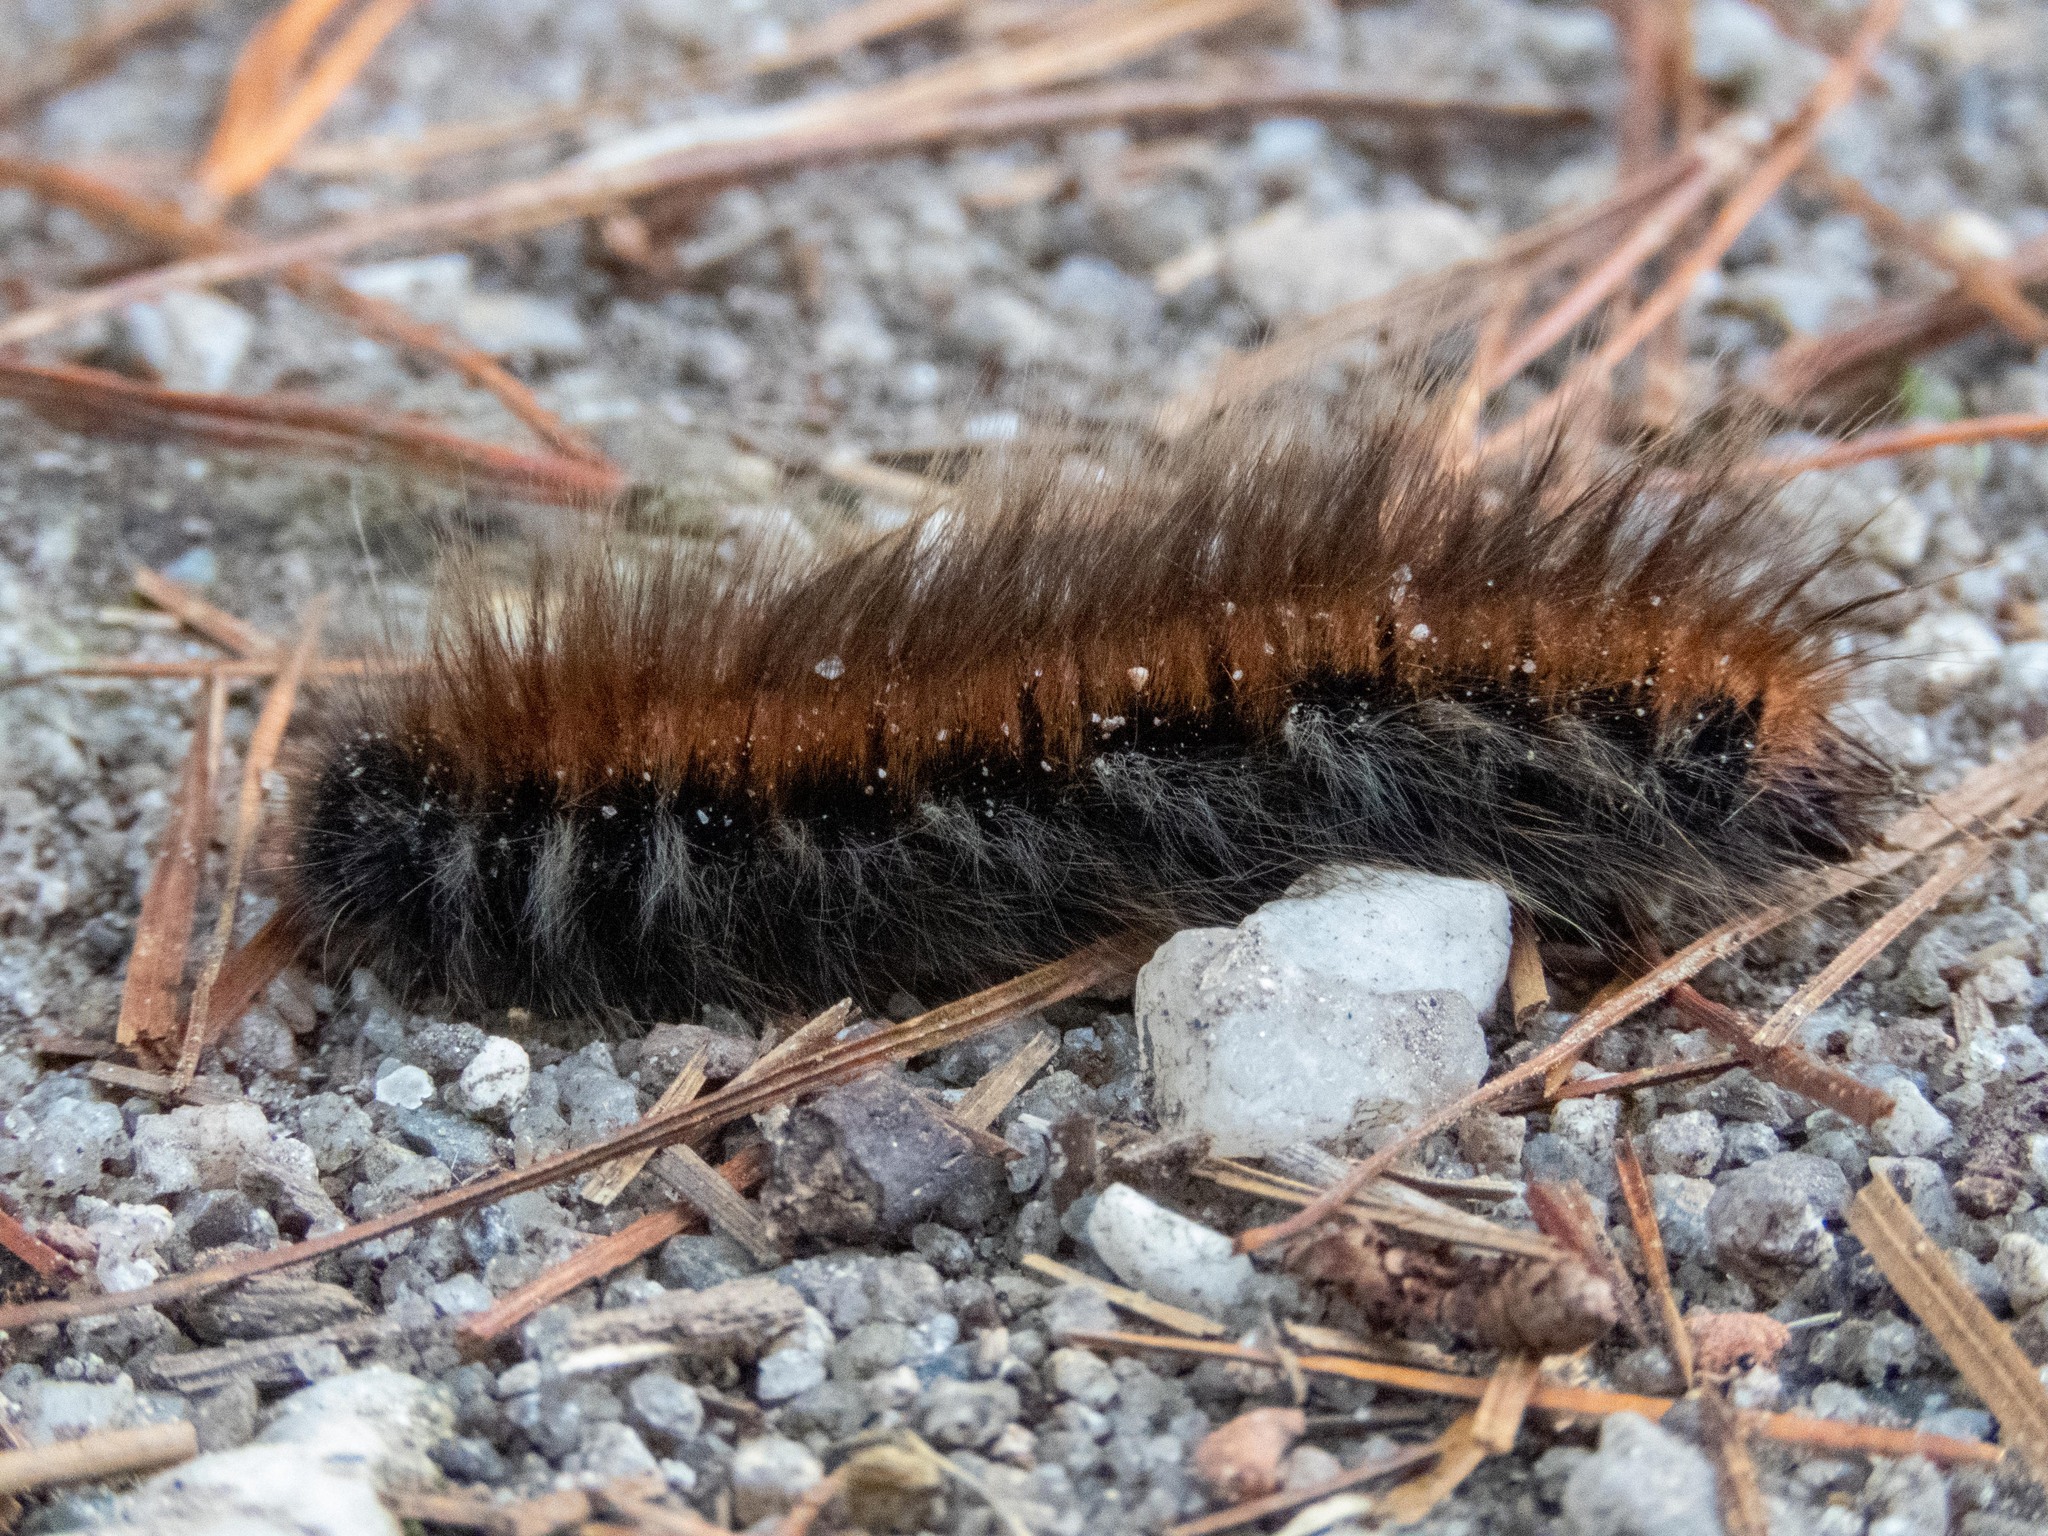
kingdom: Animalia
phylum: Arthropoda
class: Insecta
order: Lepidoptera
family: Lasiocampidae
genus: Macrothylacia
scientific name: Macrothylacia rubi
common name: Fox moth
